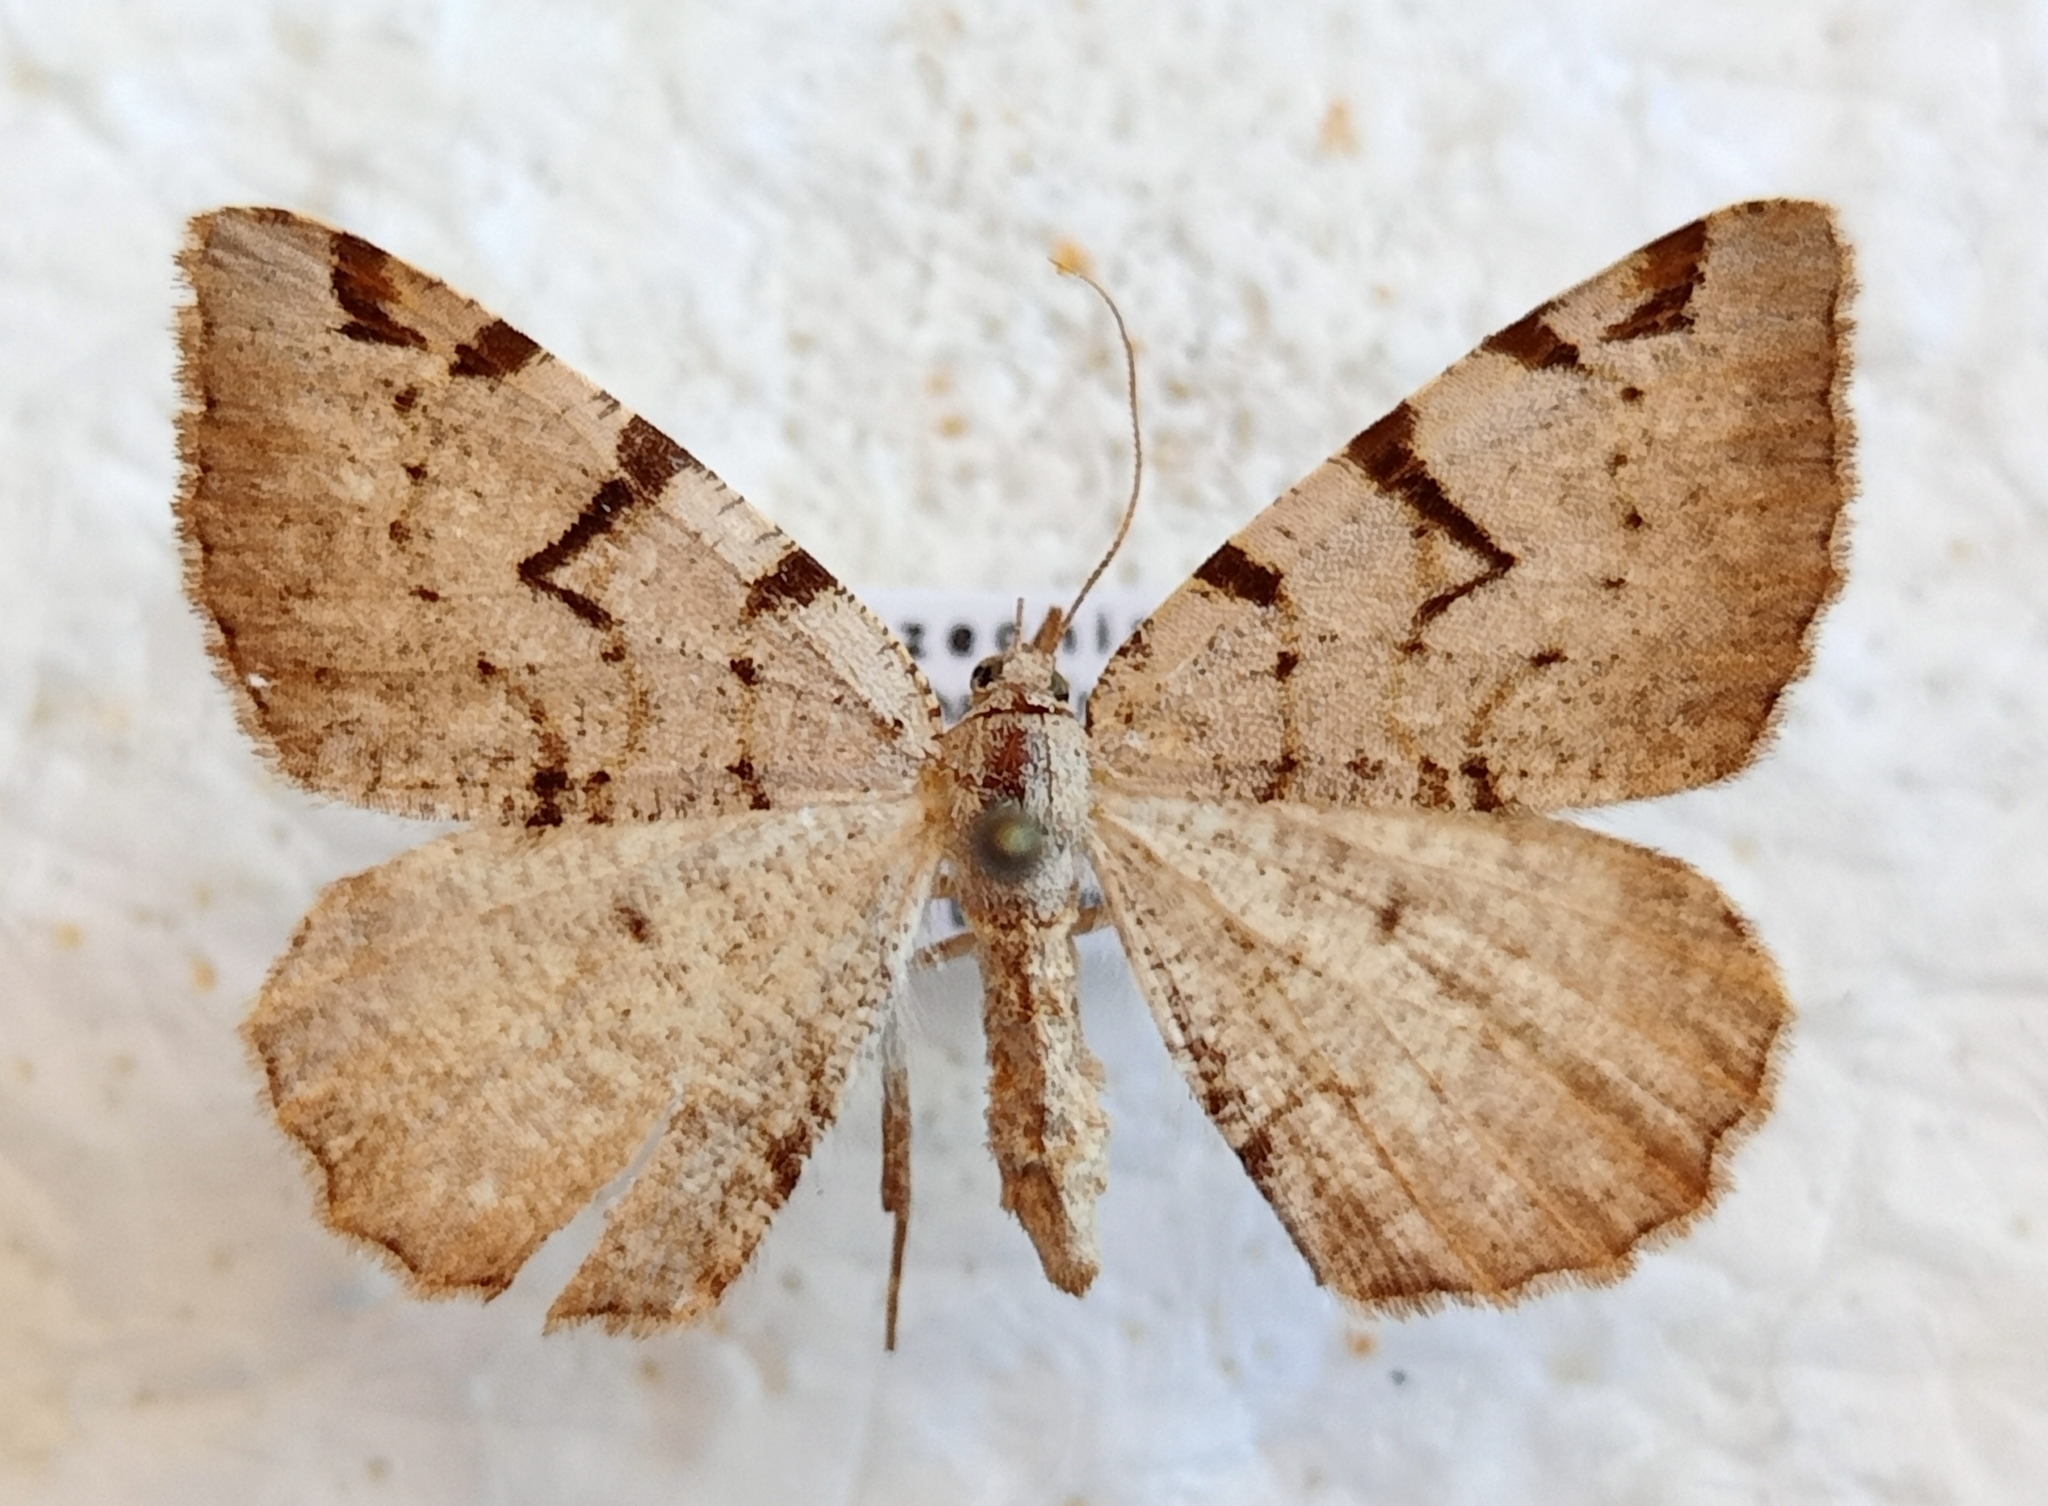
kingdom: Animalia
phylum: Arthropoda
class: Insecta
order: Lepidoptera
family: Geometridae
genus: Macaria
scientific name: Macaria wauaria
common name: V-moth
